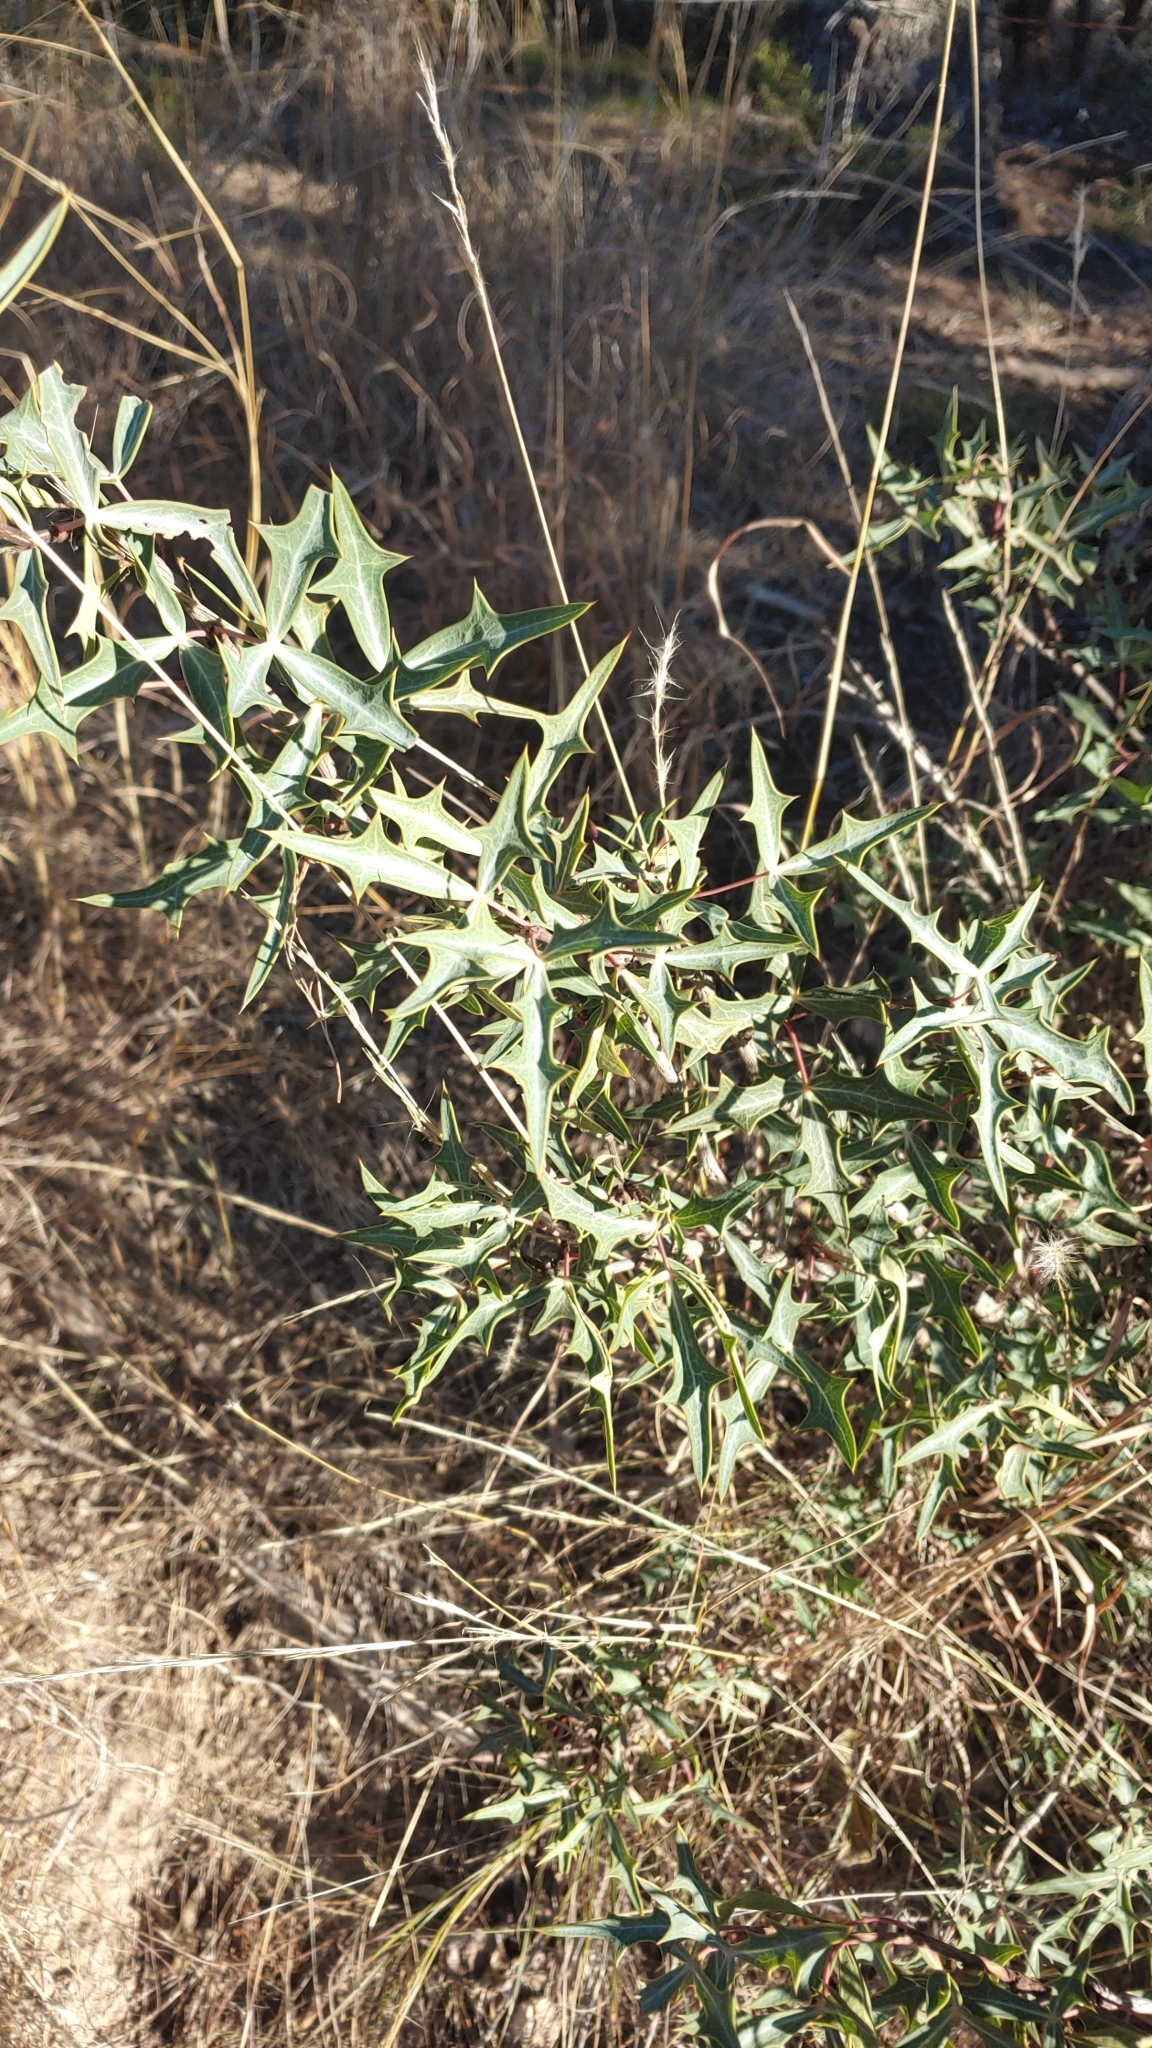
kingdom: Plantae
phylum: Tracheophyta
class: Magnoliopsida
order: Ranunculales
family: Berberidaceae
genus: Alloberberis
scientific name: Alloberberis trifoliolata
